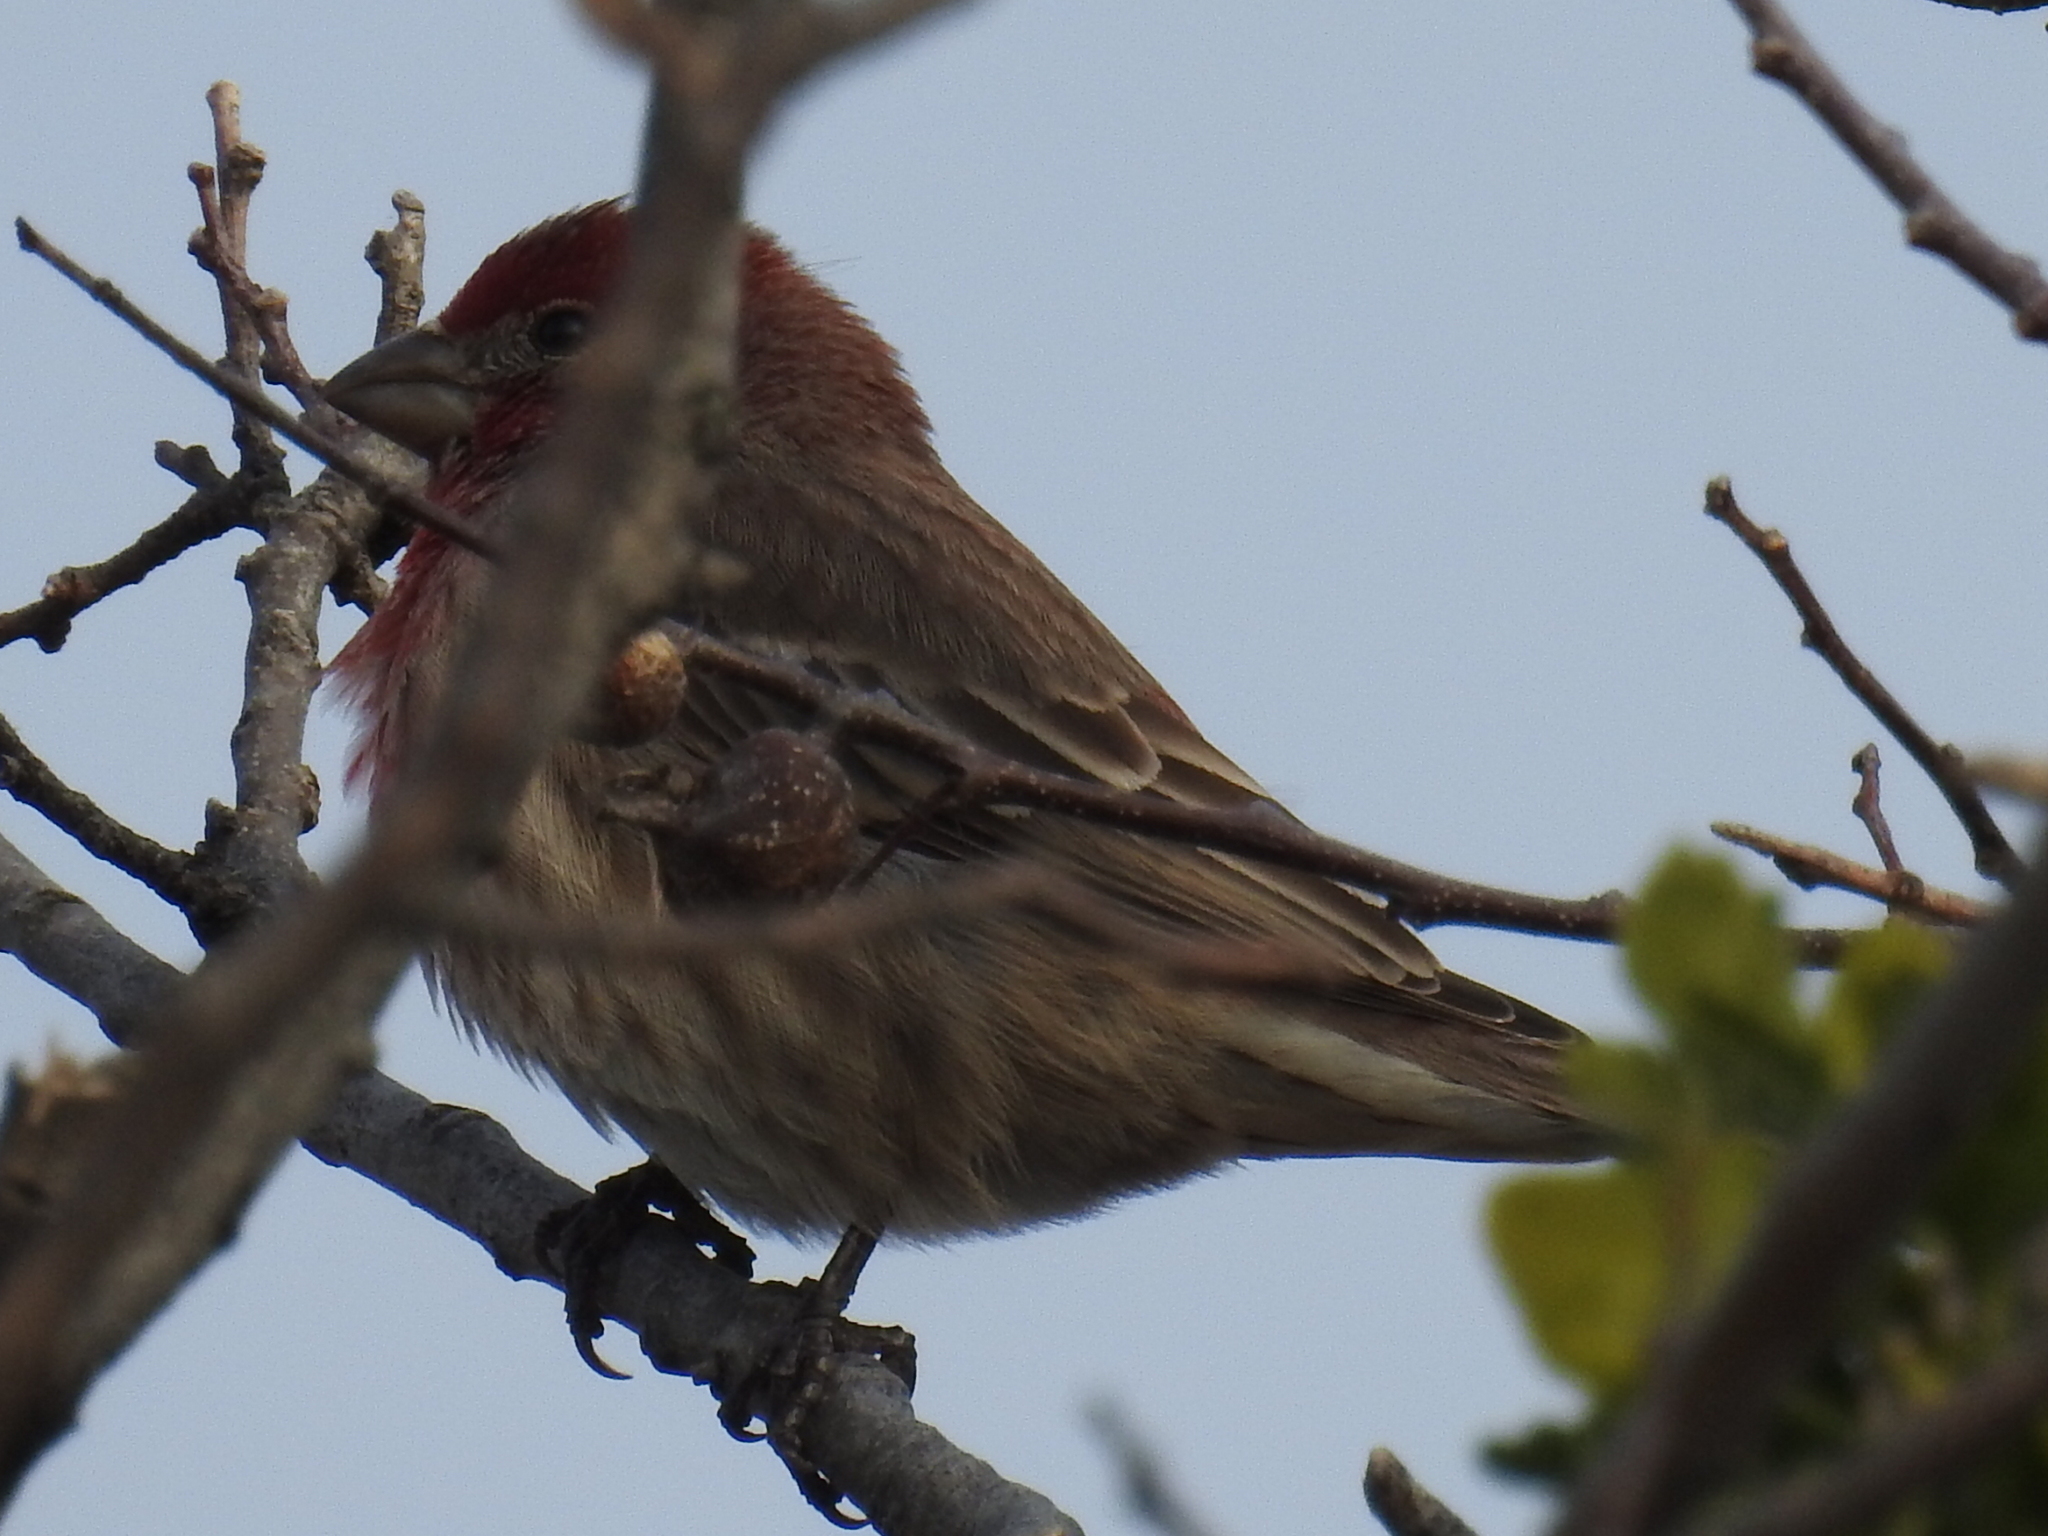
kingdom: Animalia
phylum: Chordata
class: Aves
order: Passeriformes
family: Fringillidae
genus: Haemorhous
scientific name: Haemorhous mexicanus
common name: House finch
